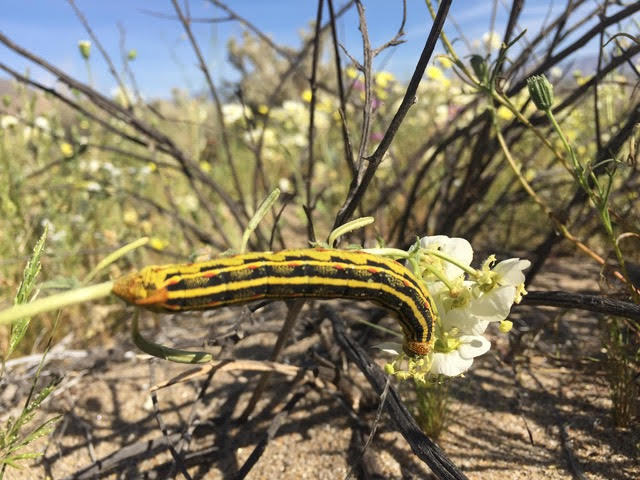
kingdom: Animalia
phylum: Arthropoda
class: Insecta
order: Lepidoptera
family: Sphingidae
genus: Hyles
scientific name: Hyles lineata
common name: White-lined sphinx
